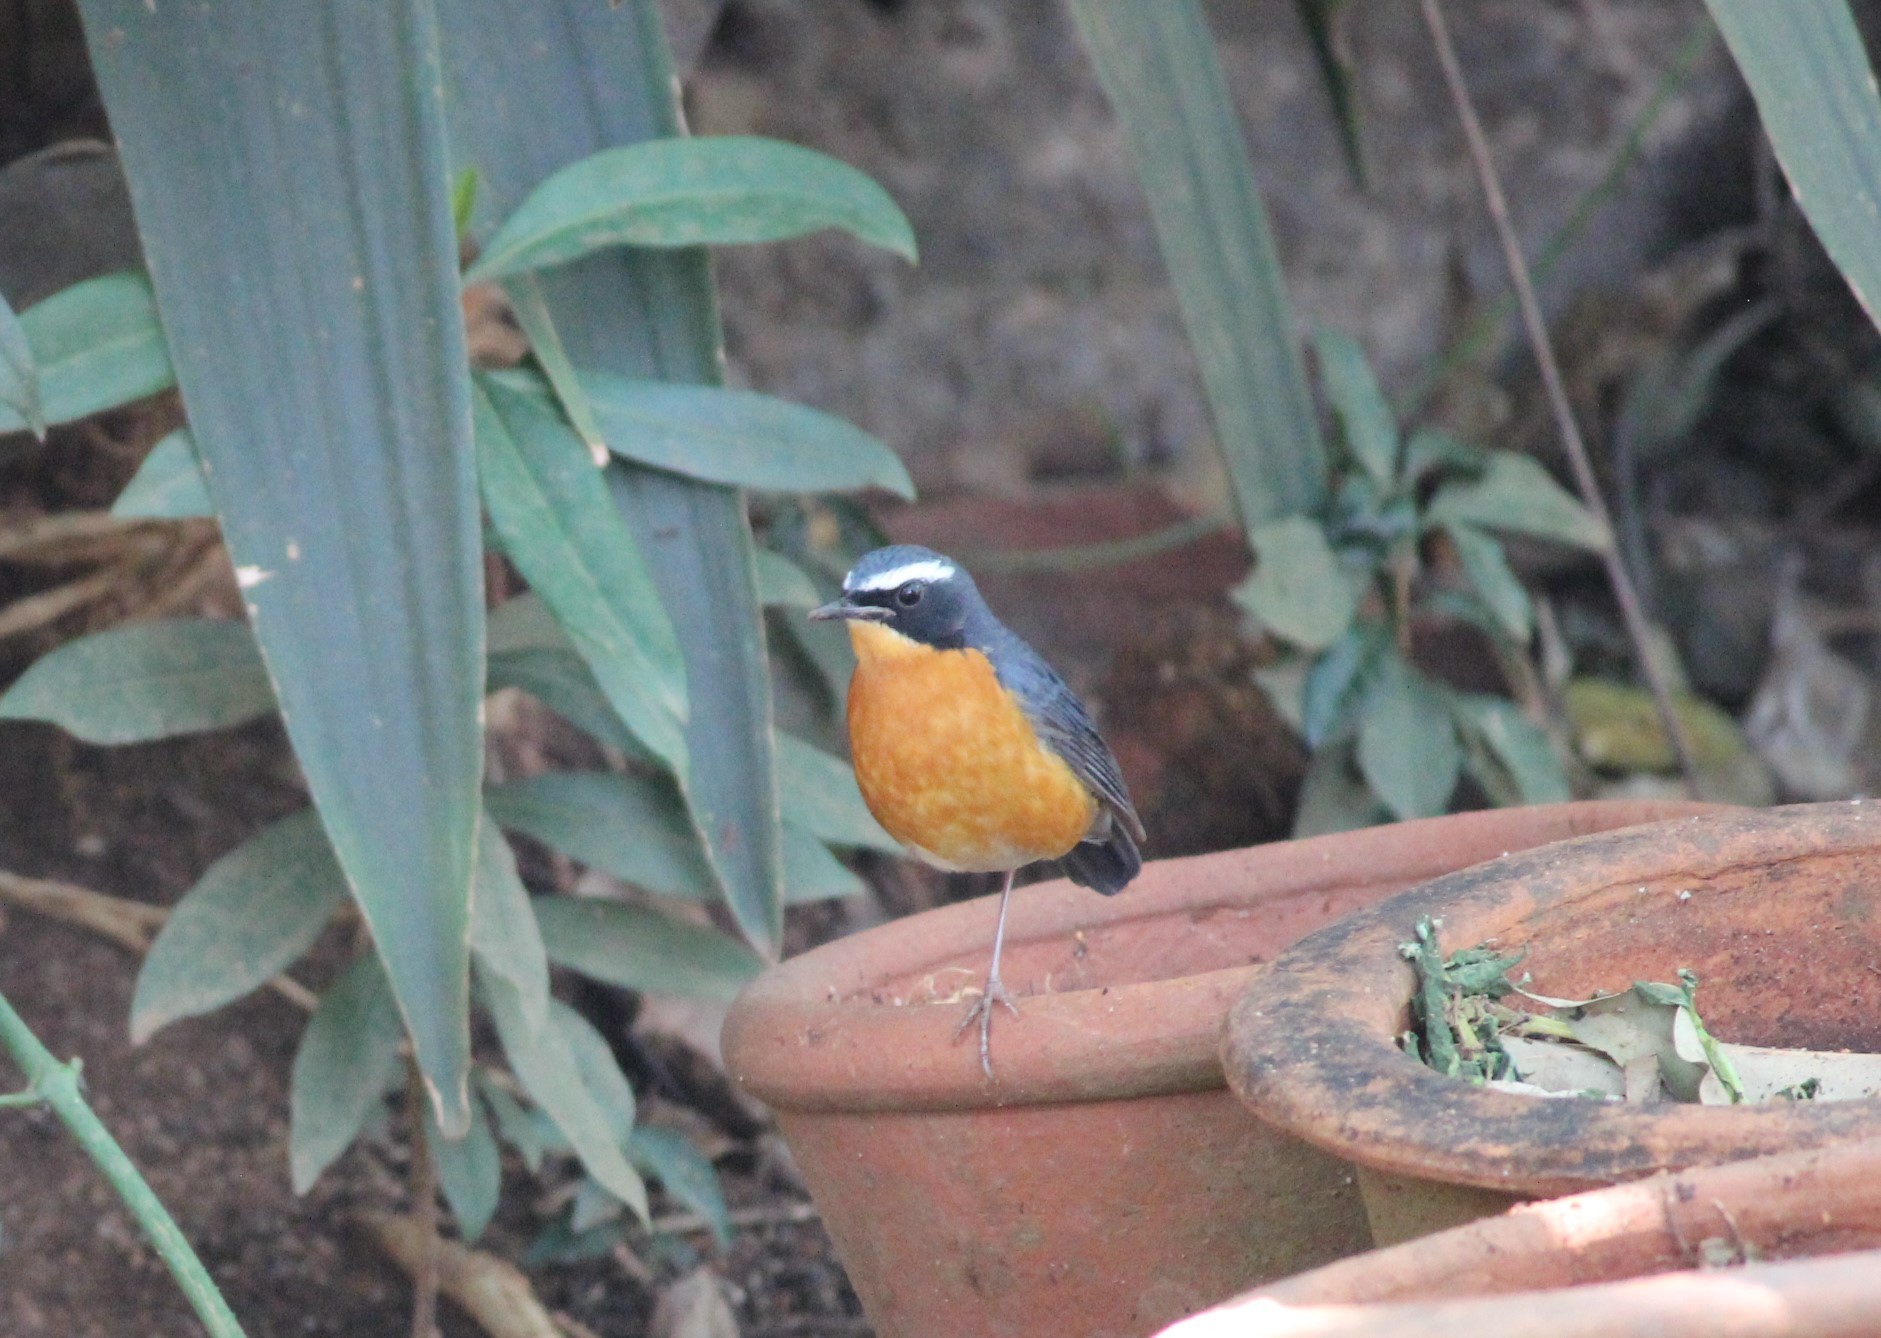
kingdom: Animalia
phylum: Chordata
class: Aves
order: Passeriformes
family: Muscicapidae
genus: Luscinia
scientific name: Luscinia brunnea
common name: Indian blue robin
